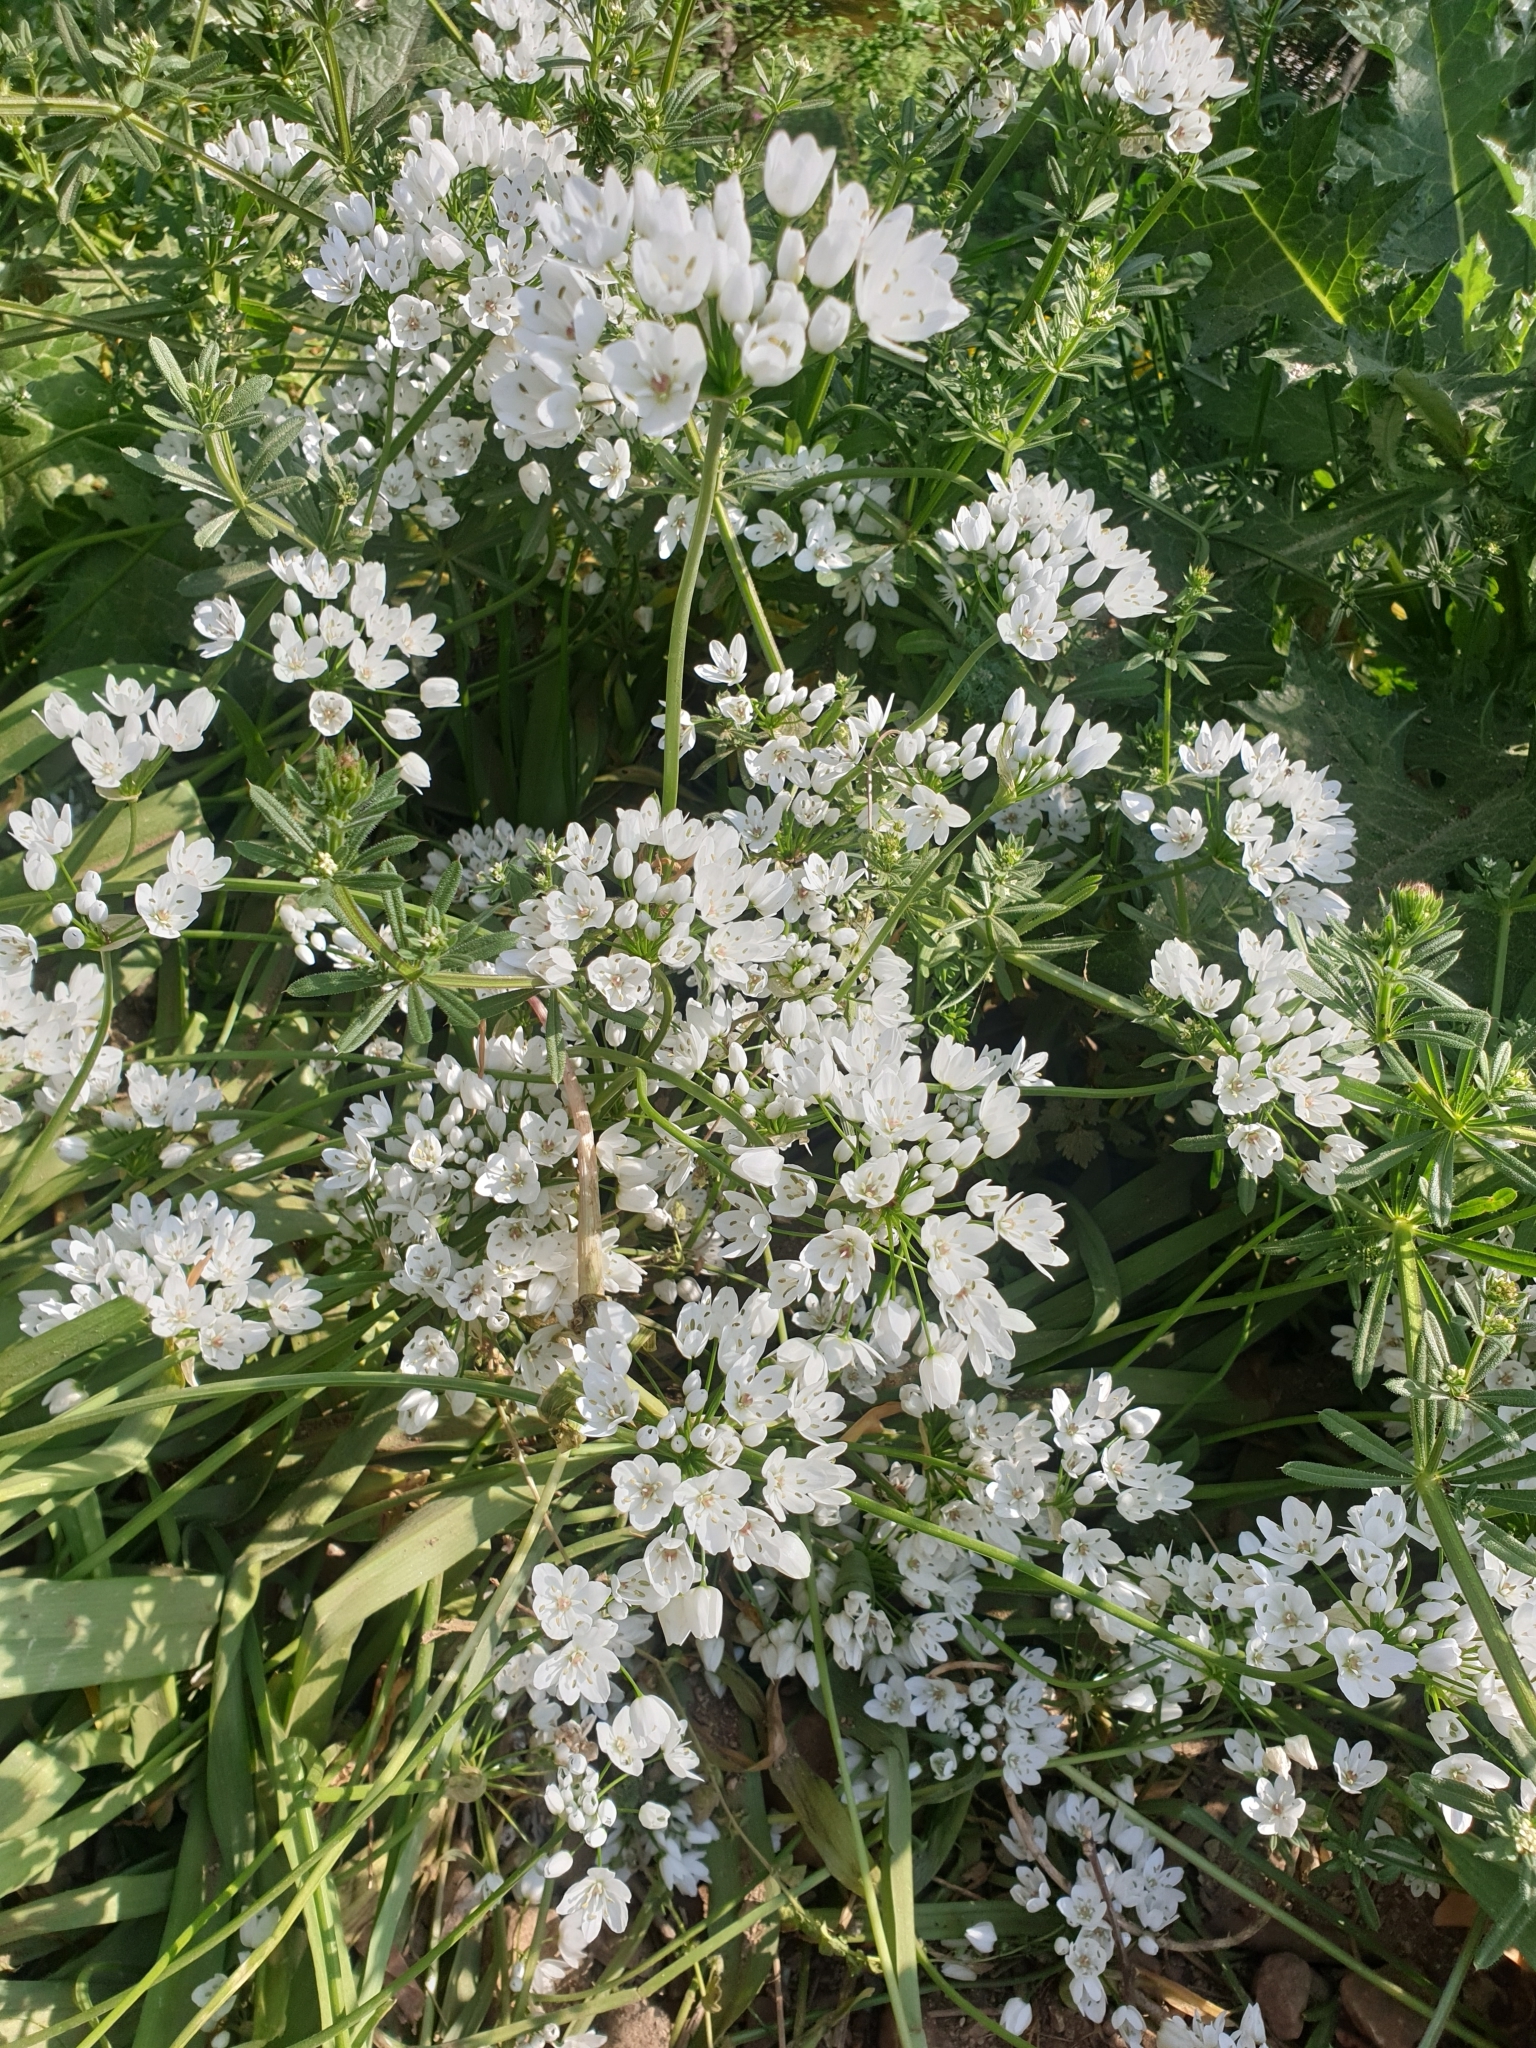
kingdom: Plantae
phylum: Tracheophyta
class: Liliopsida
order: Asparagales
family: Amaryllidaceae
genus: Allium
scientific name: Allium neapolitanum
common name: Neapolitan garlic
